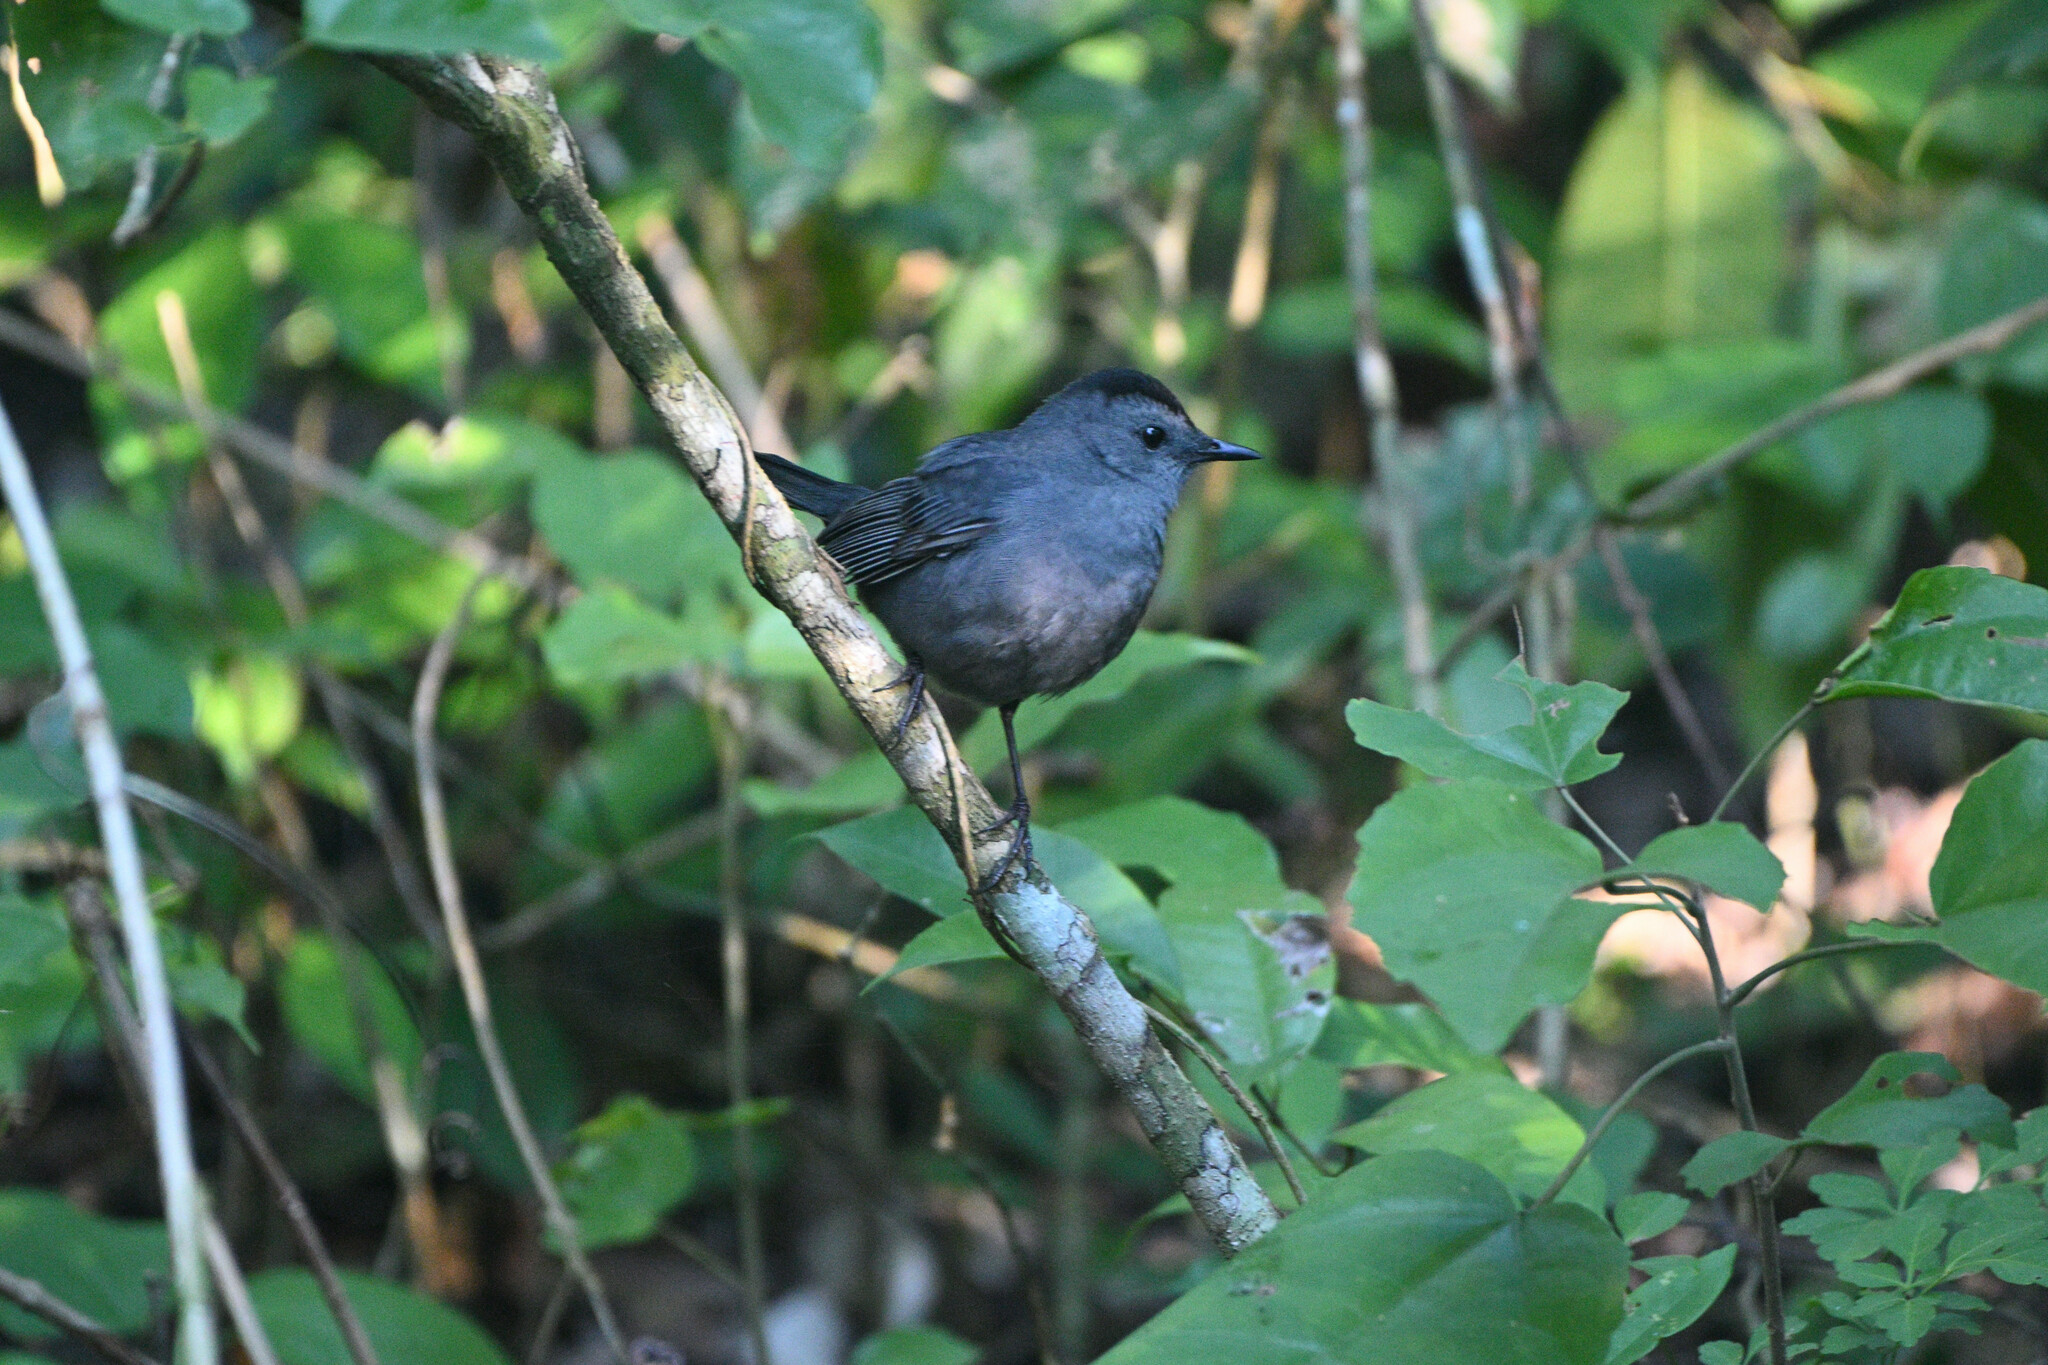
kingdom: Animalia
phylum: Chordata
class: Aves
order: Passeriformes
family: Mimidae
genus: Dumetella
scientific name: Dumetella carolinensis
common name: Gray catbird
